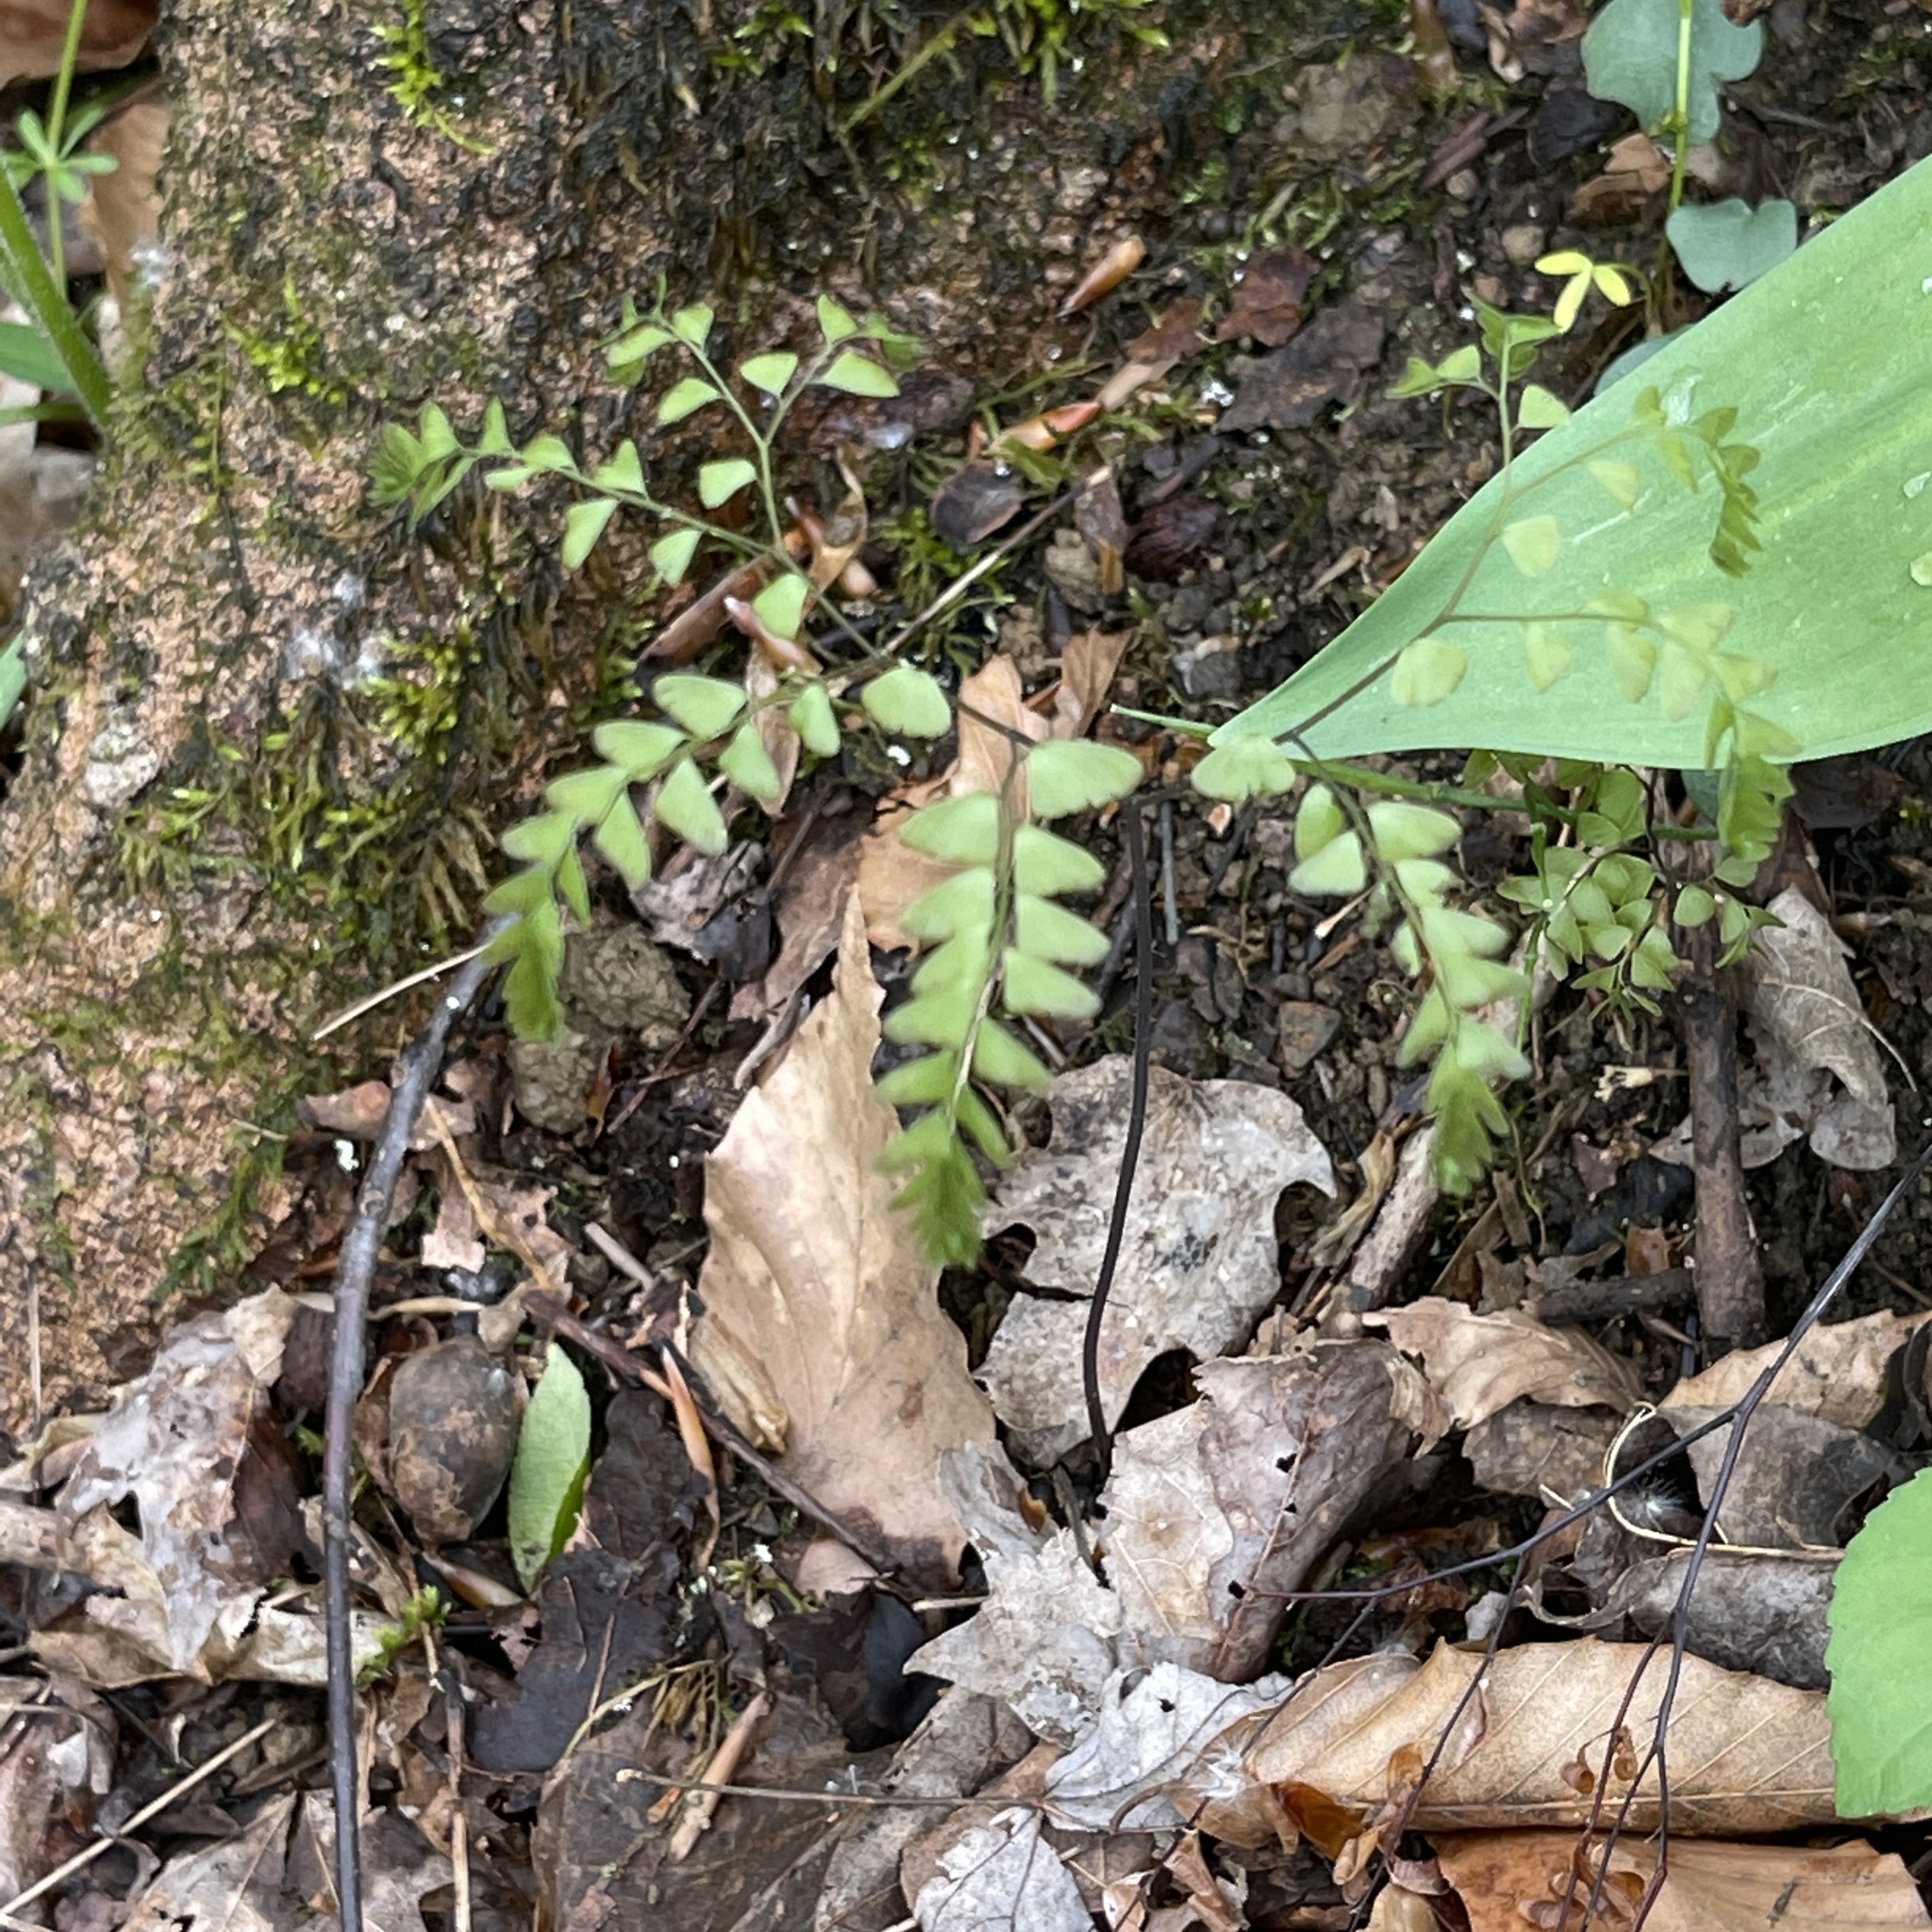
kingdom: Plantae
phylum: Tracheophyta
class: Polypodiopsida
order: Polypodiales
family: Pteridaceae
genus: Adiantum
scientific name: Adiantum pedatum
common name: Five-finger fern
